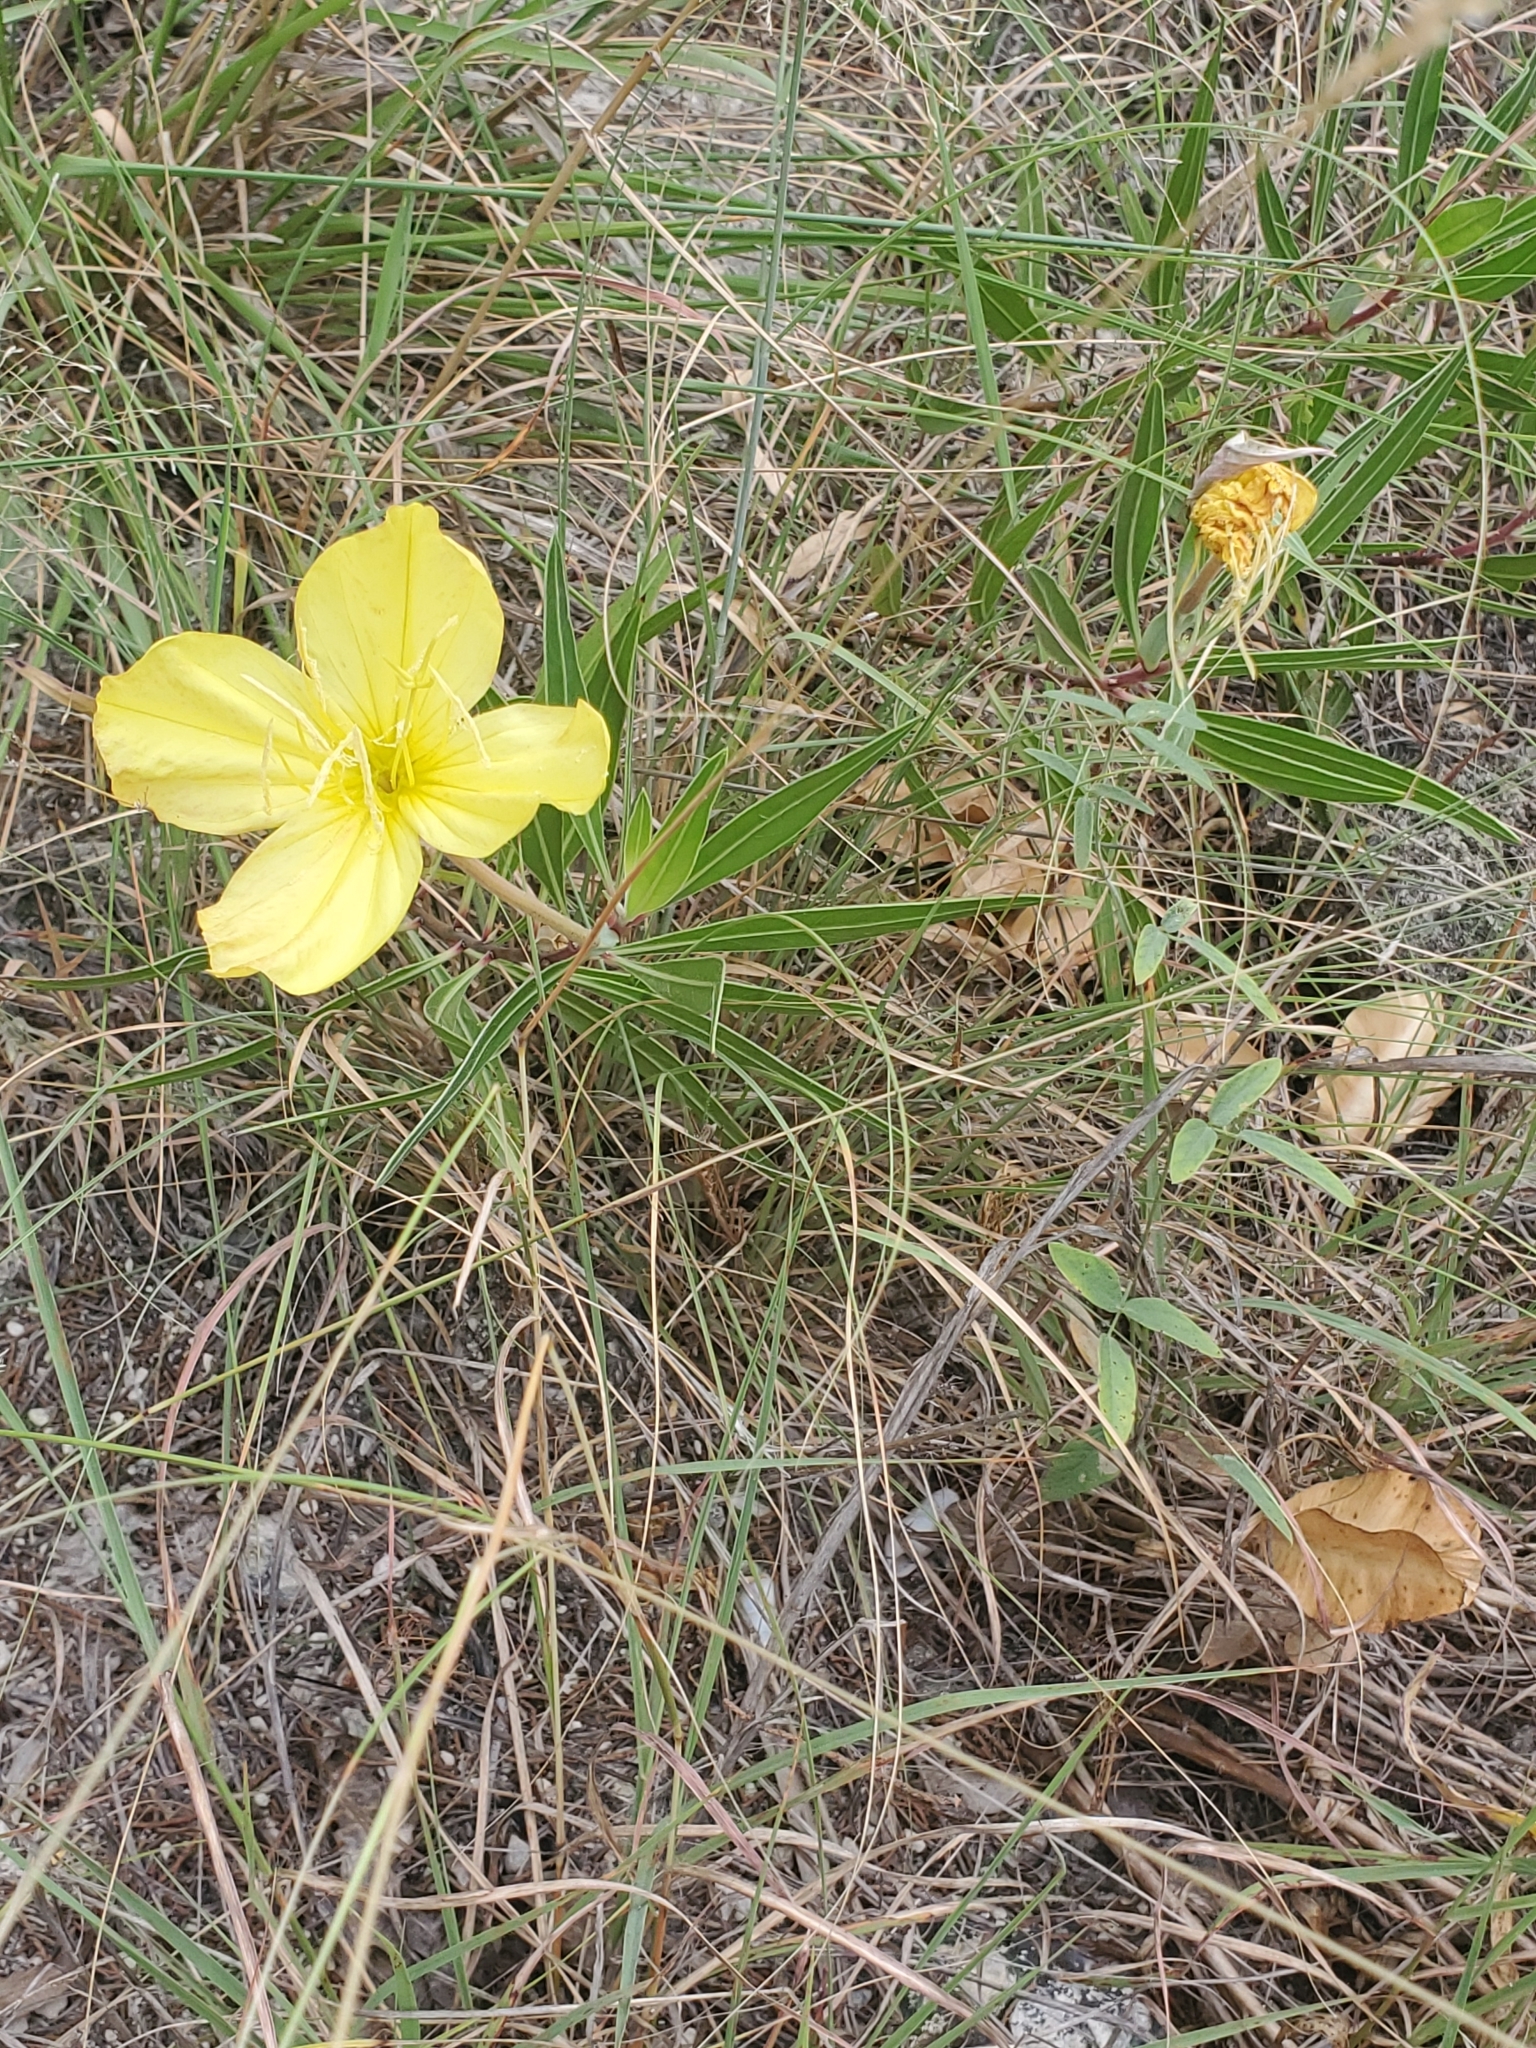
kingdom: Plantae
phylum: Tracheophyta
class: Magnoliopsida
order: Myrtales
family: Onagraceae
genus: Oenothera
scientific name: Oenothera macrocarpa
